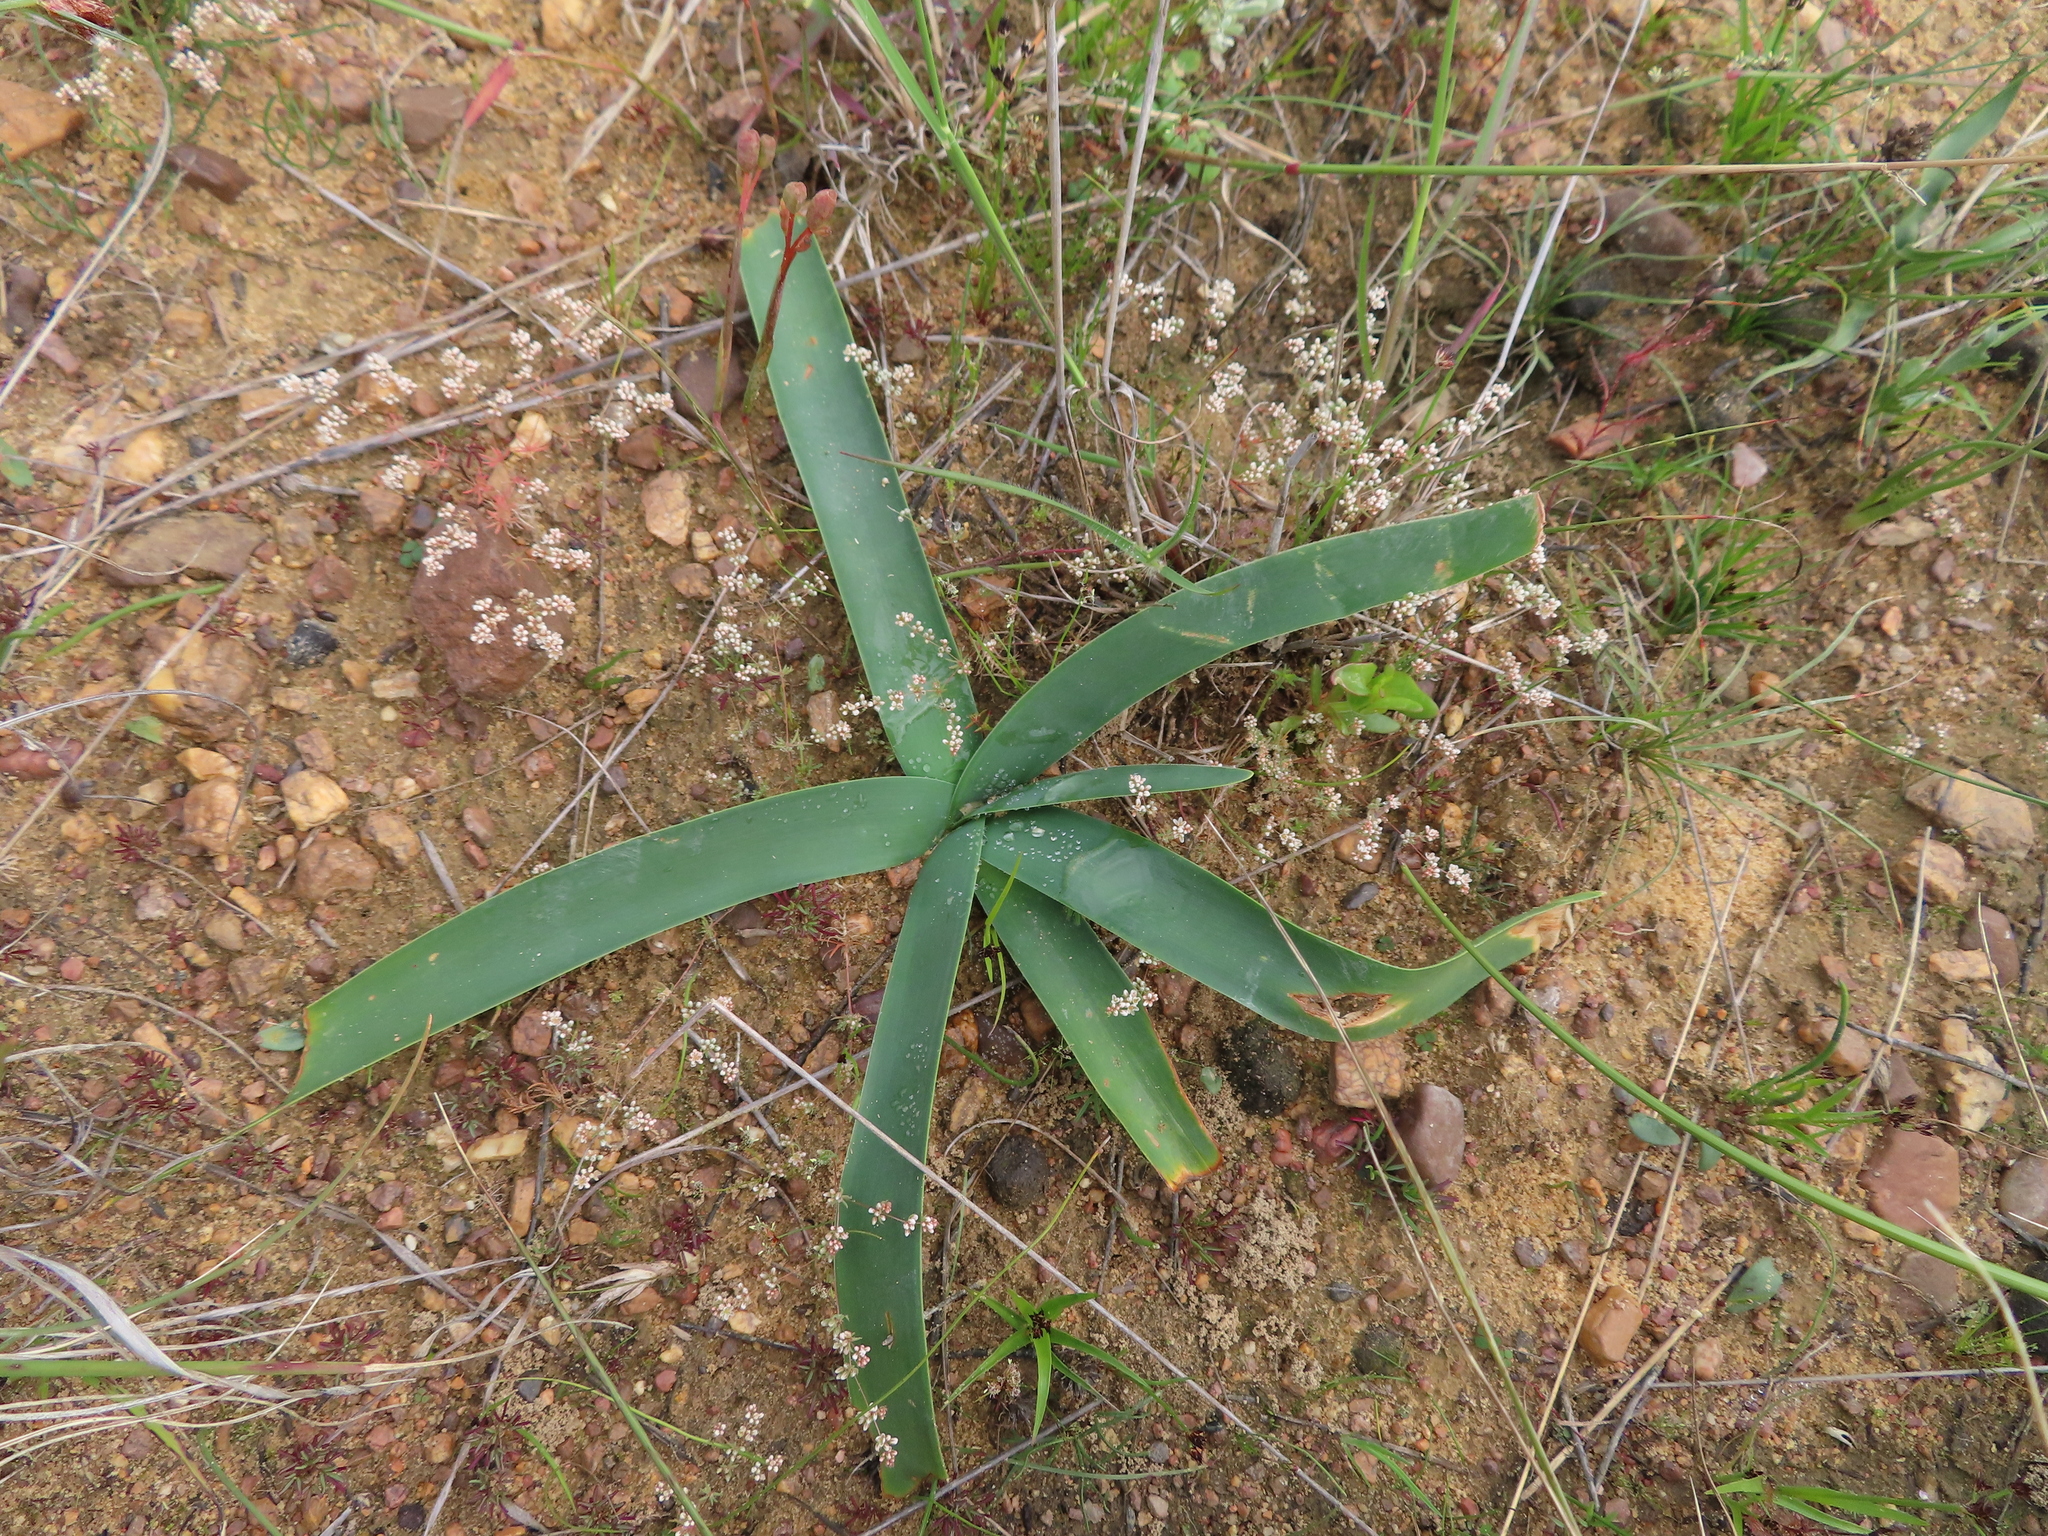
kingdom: Plantae
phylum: Tracheophyta
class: Liliopsida
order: Asparagales
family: Amaryllidaceae
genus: Ammocharis
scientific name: Ammocharis longifolia
